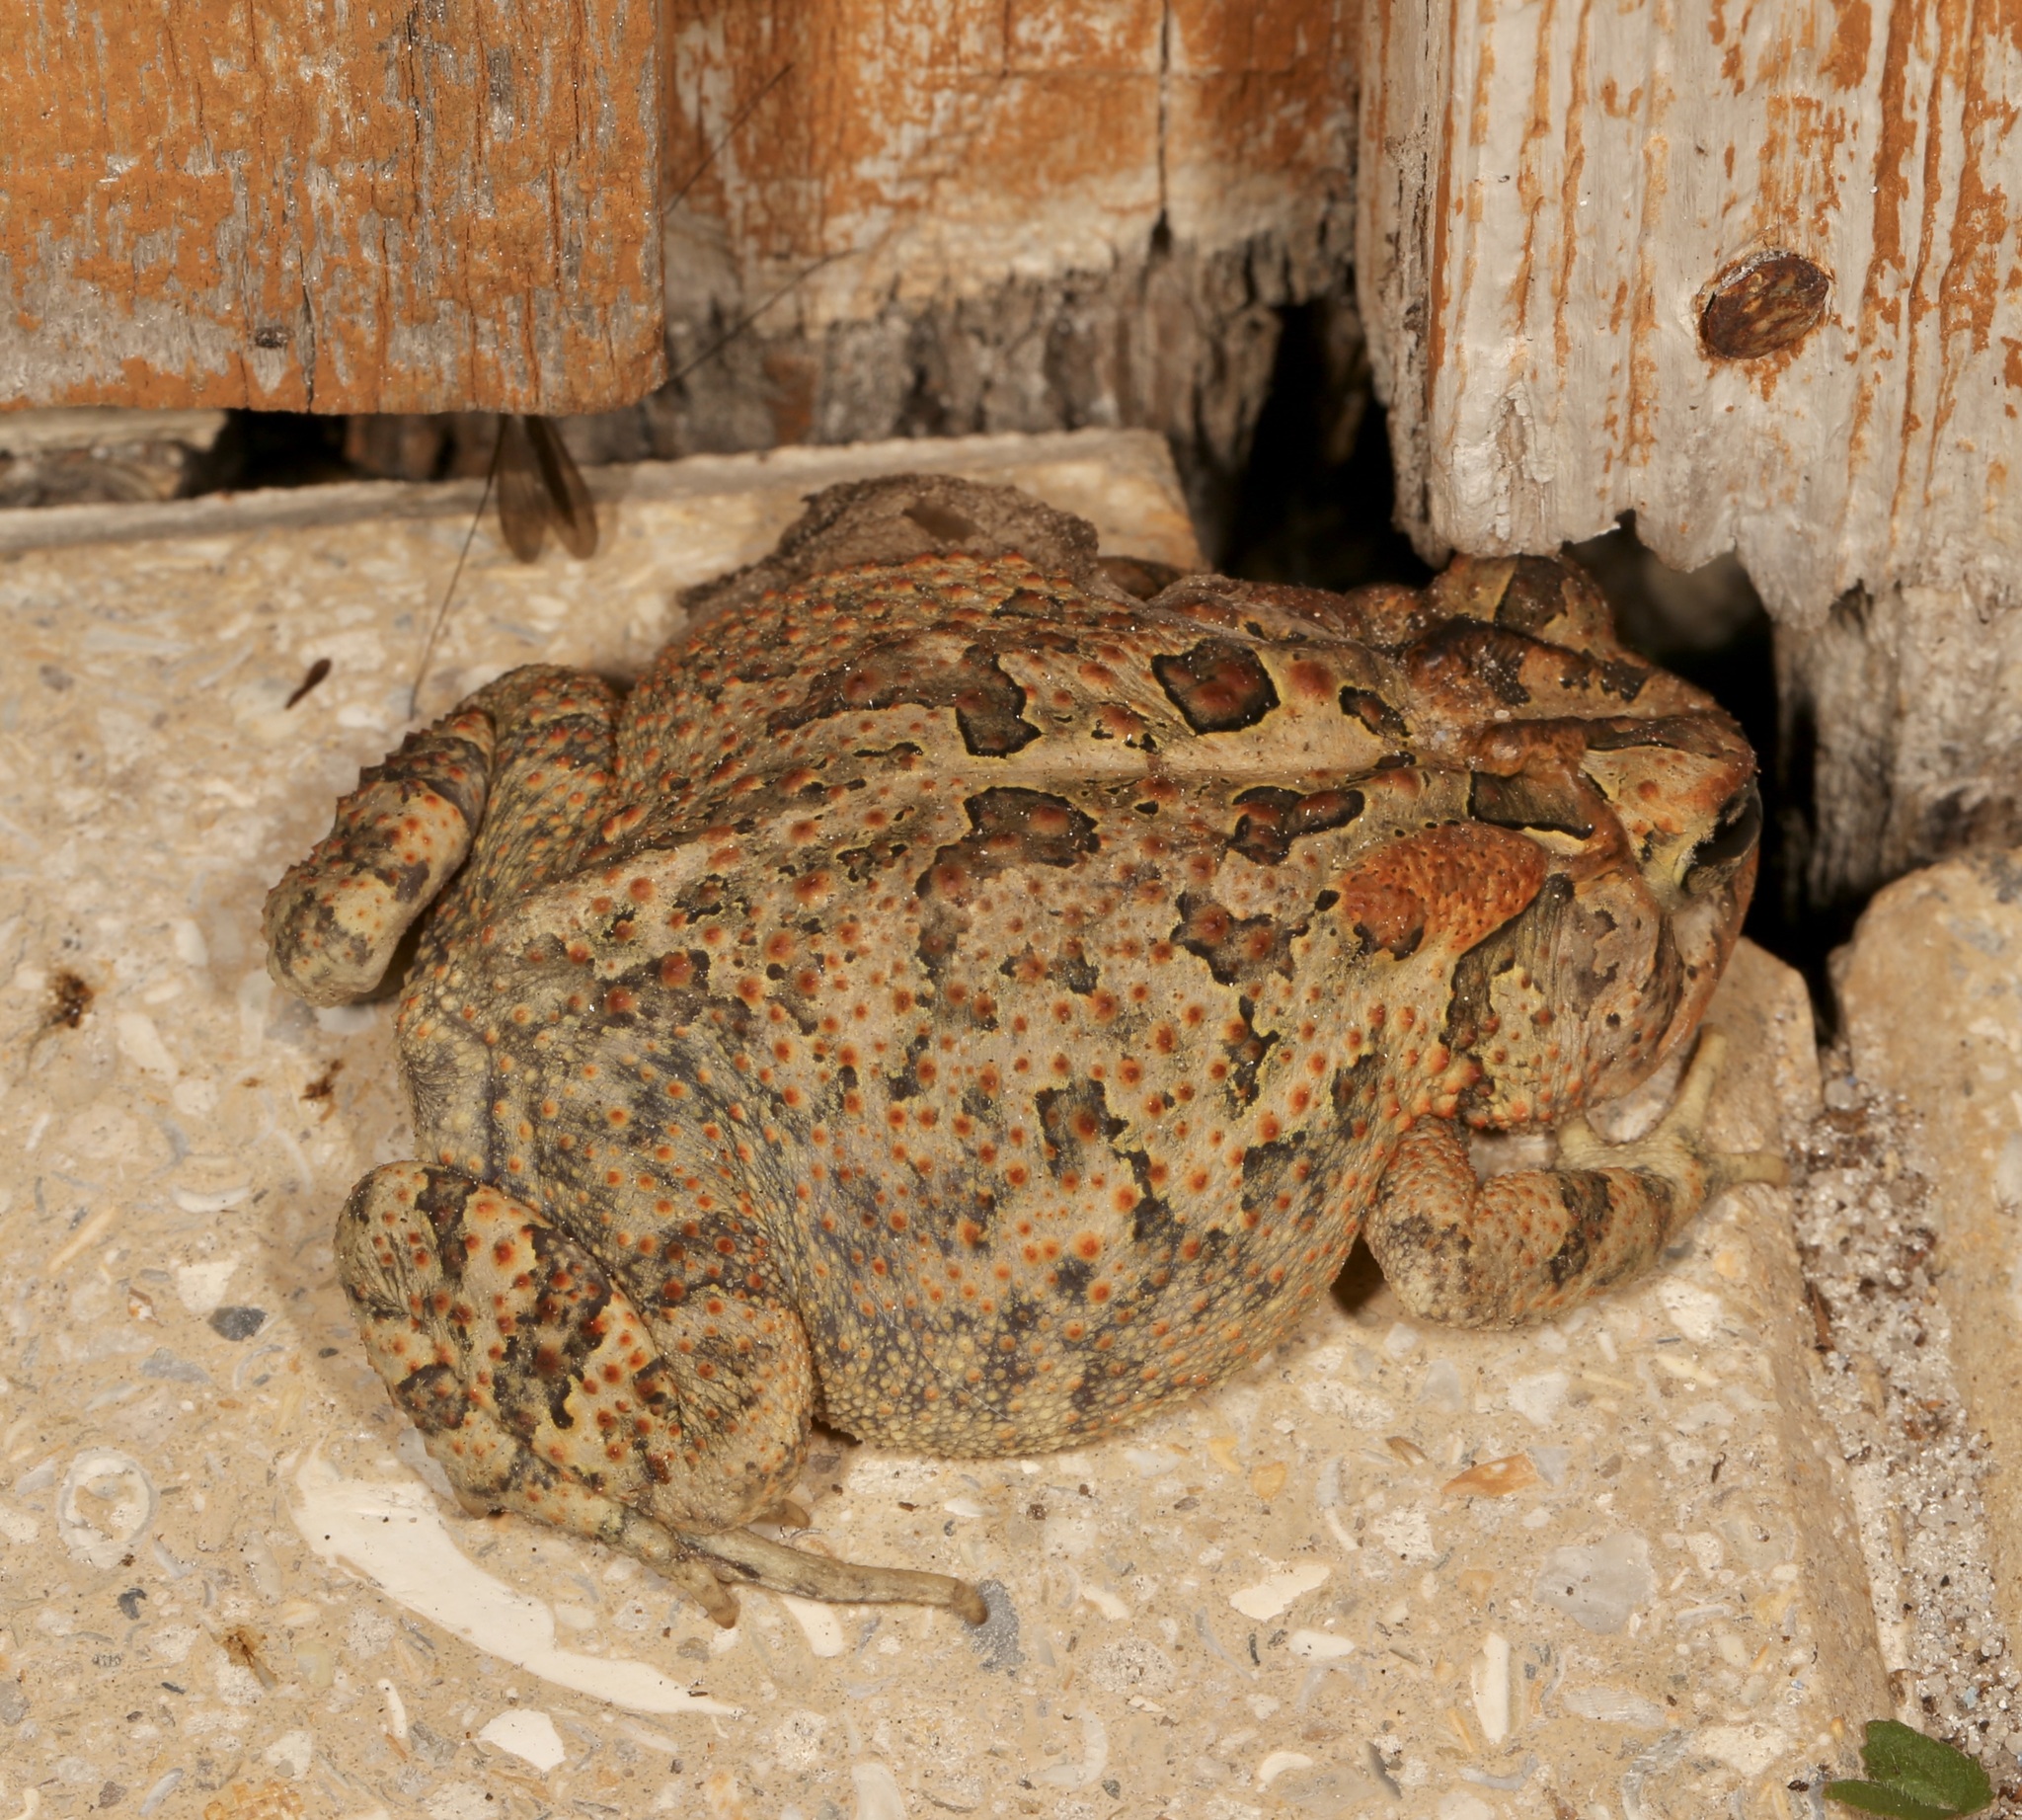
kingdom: Animalia
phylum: Chordata
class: Amphibia
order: Anura
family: Bufonidae
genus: Anaxyrus
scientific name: Anaxyrus terrestris
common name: Southern toad
